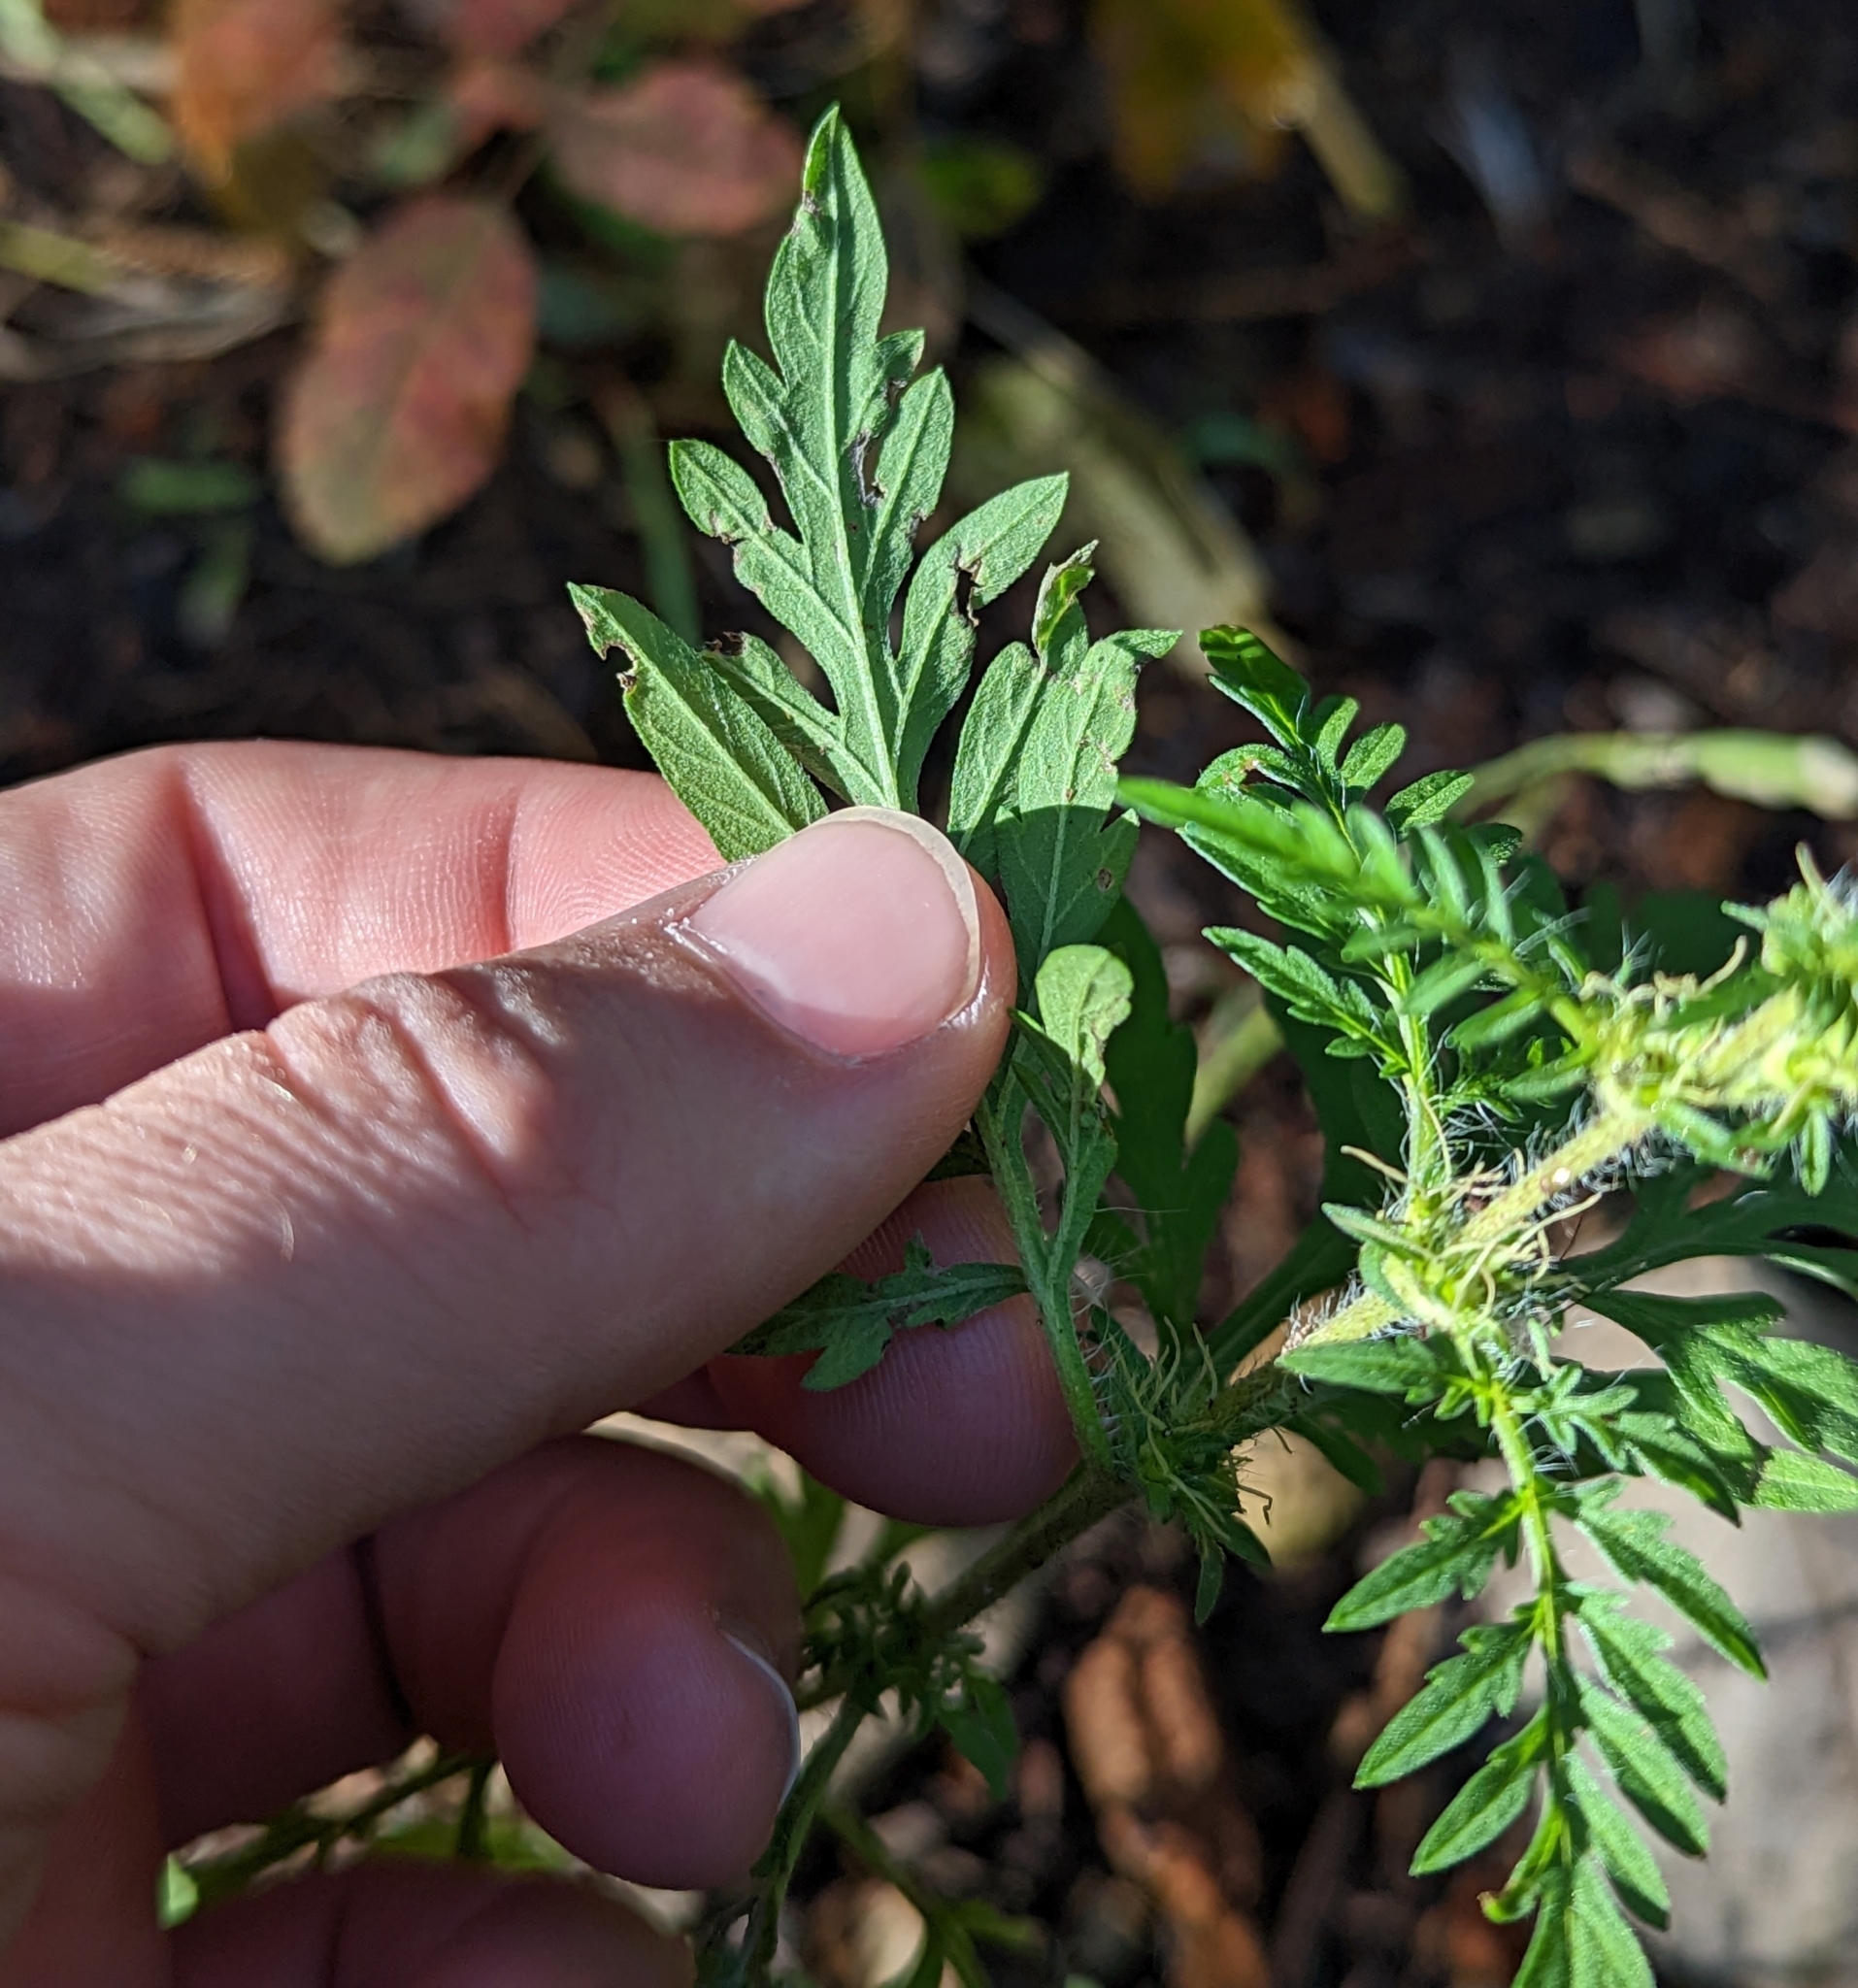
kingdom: Plantae
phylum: Tracheophyta
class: Magnoliopsida
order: Asterales
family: Asteraceae
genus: Ambrosia
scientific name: Ambrosia artemisiifolia
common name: Annual ragweed
